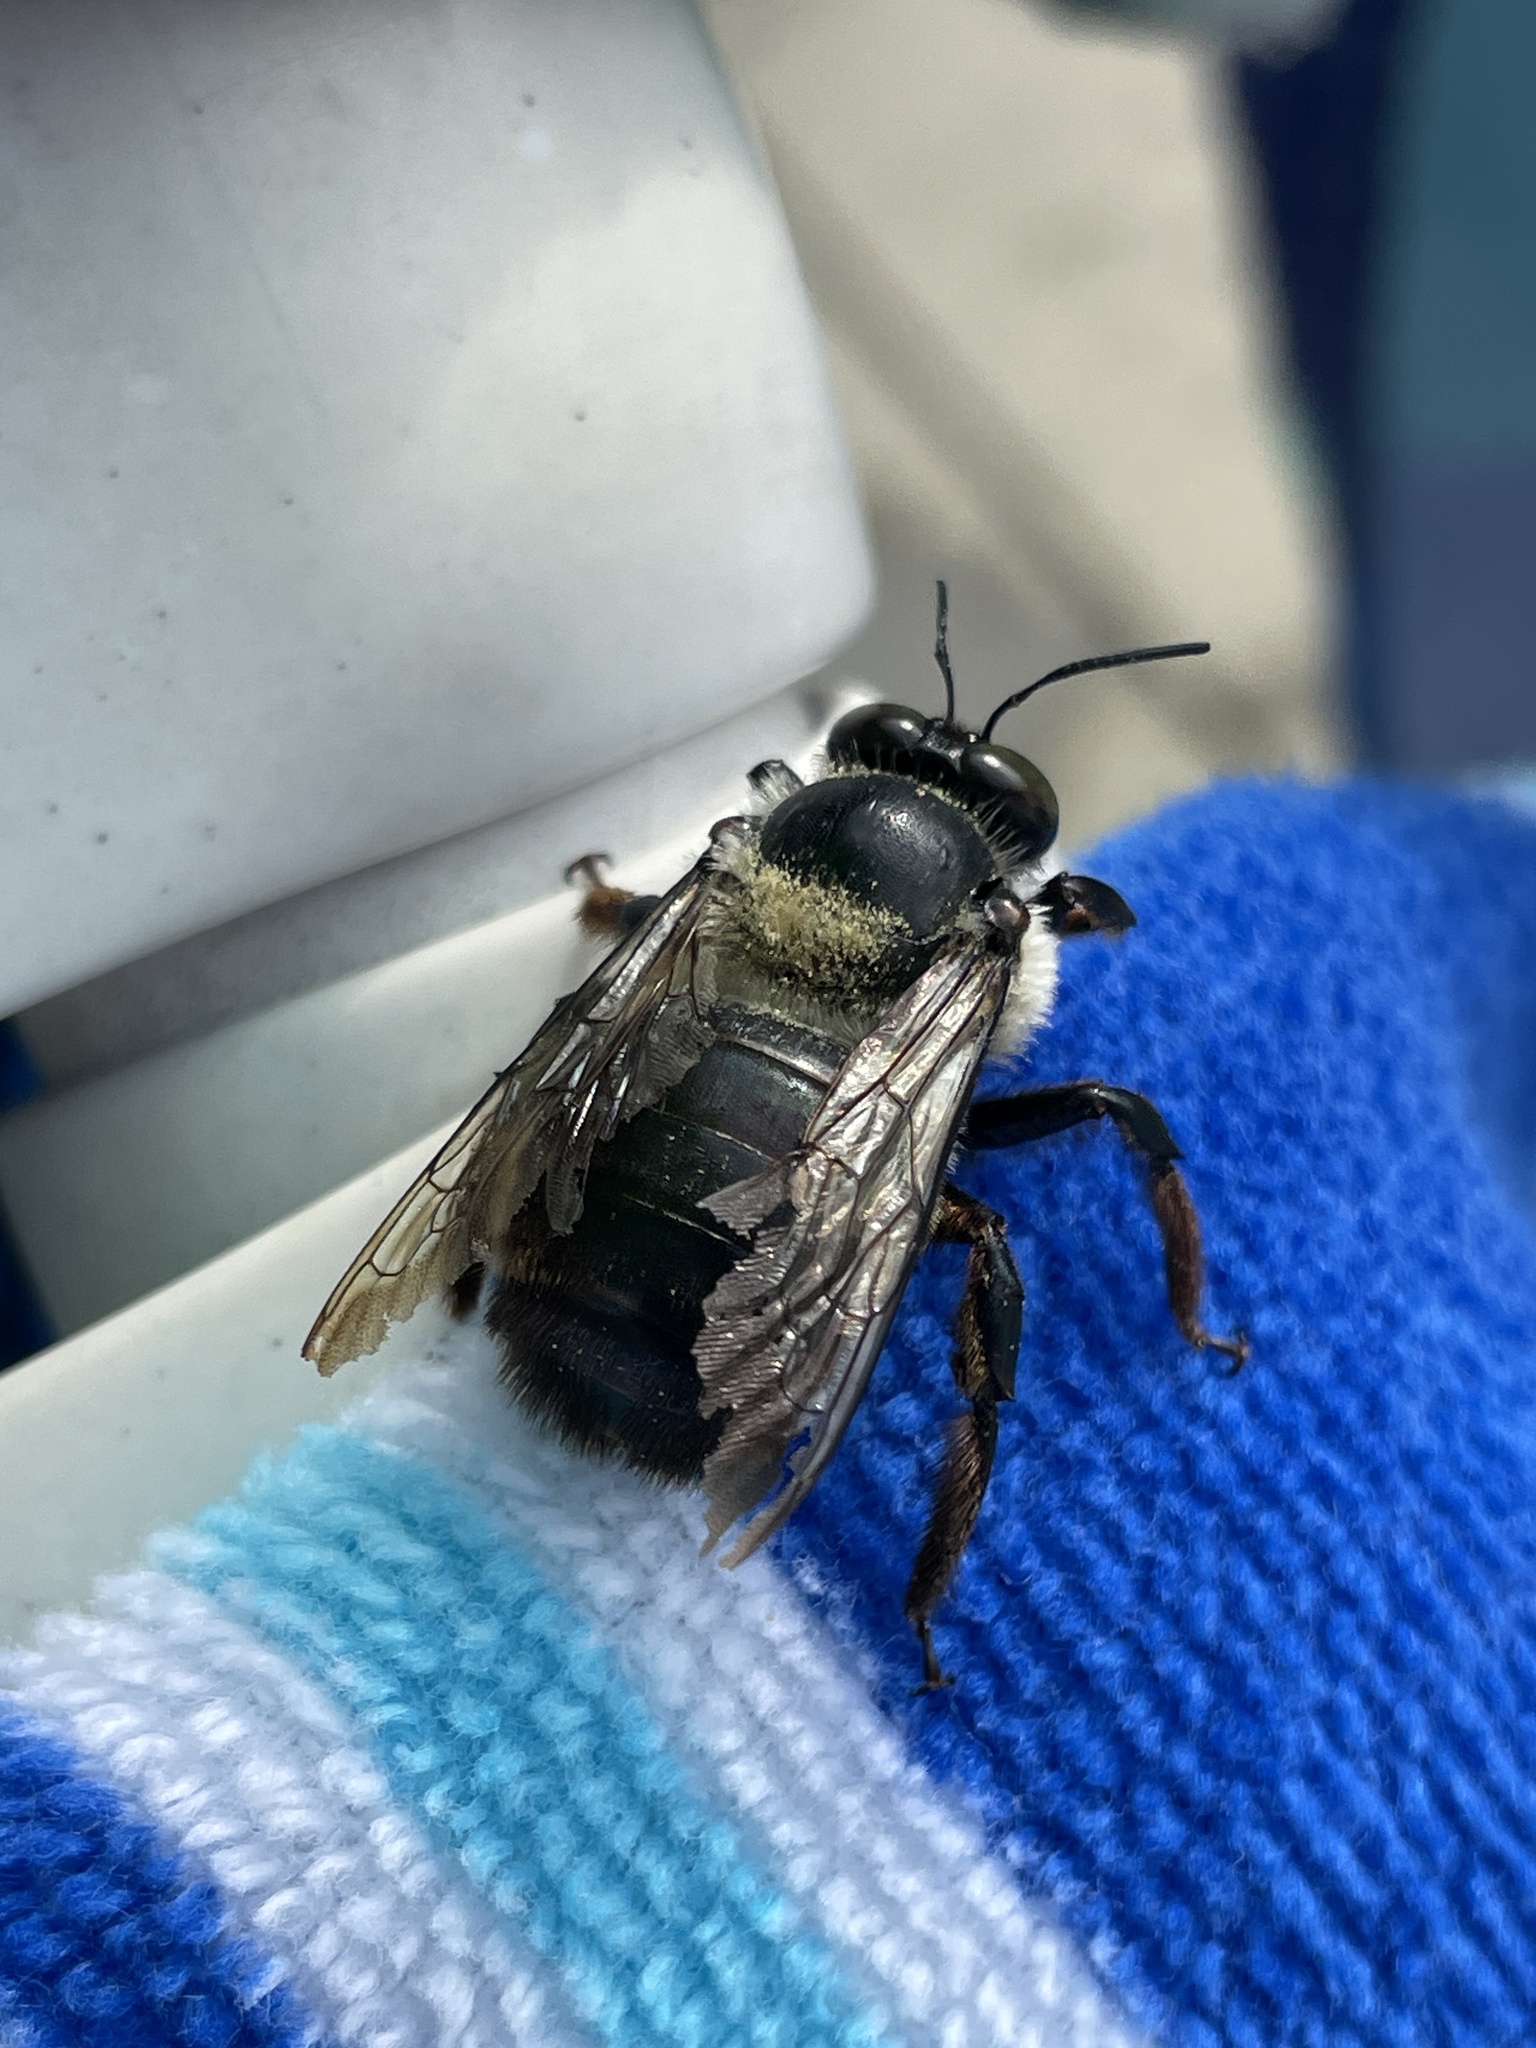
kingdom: Animalia
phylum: Arthropoda
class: Insecta
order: Hymenoptera
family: Apidae
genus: Xylocopa
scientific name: Xylocopa virginica
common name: Carpenter bee
